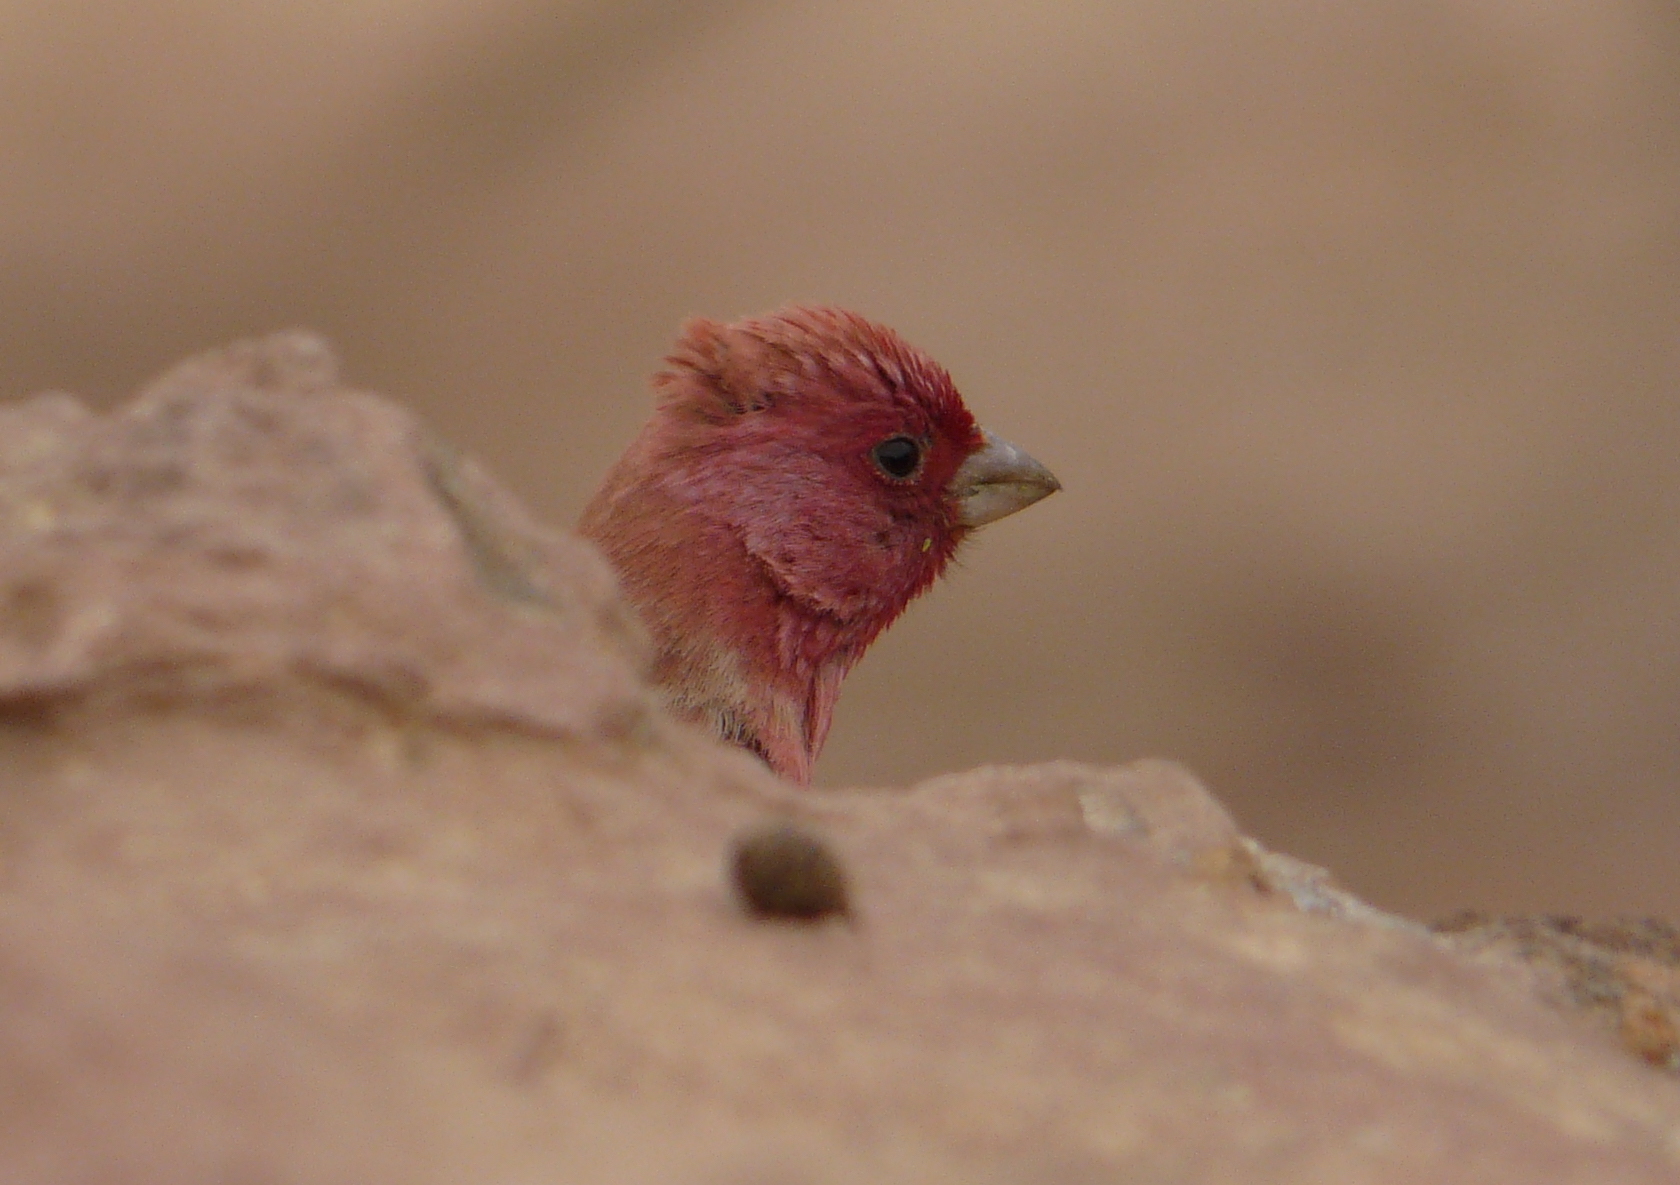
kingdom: Animalia
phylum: Chordata
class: Aves
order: Passeriformes
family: Fringillidae
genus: Carpodacus
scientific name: Carpodacus synoicus
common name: Sinai rosefinch
